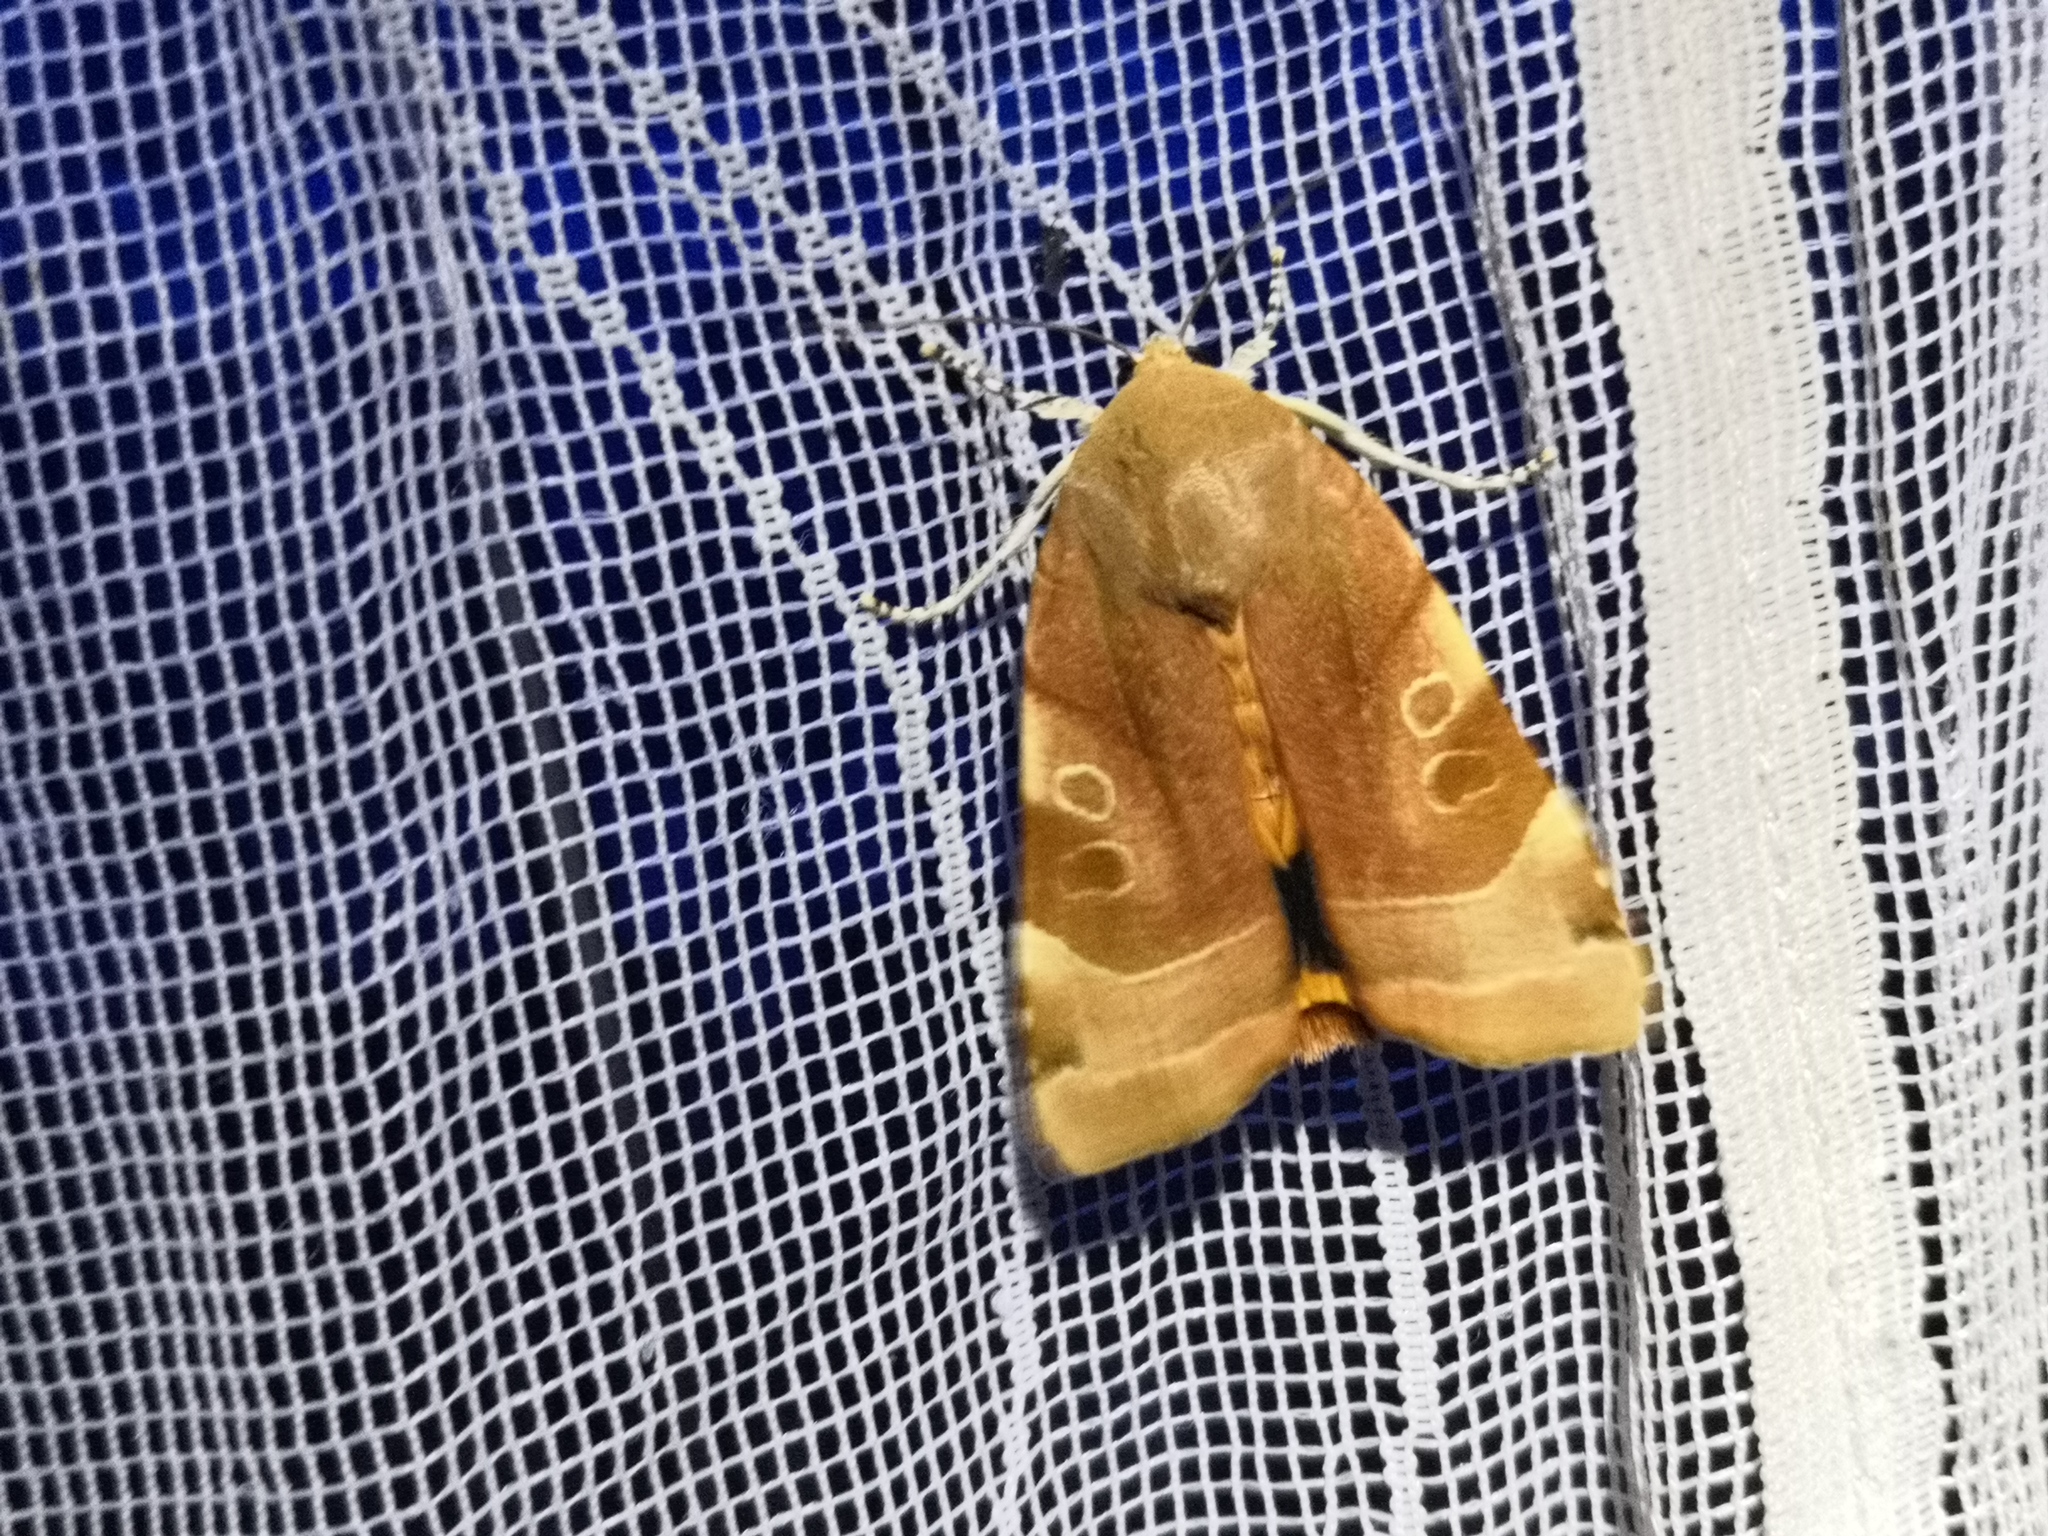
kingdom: Animalia
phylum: Arthropoda
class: Insecta
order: Lepidoptera
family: Noctuidae
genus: Noctua
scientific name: Noctua fimbriata
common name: Broad-bordered yellow underwing
